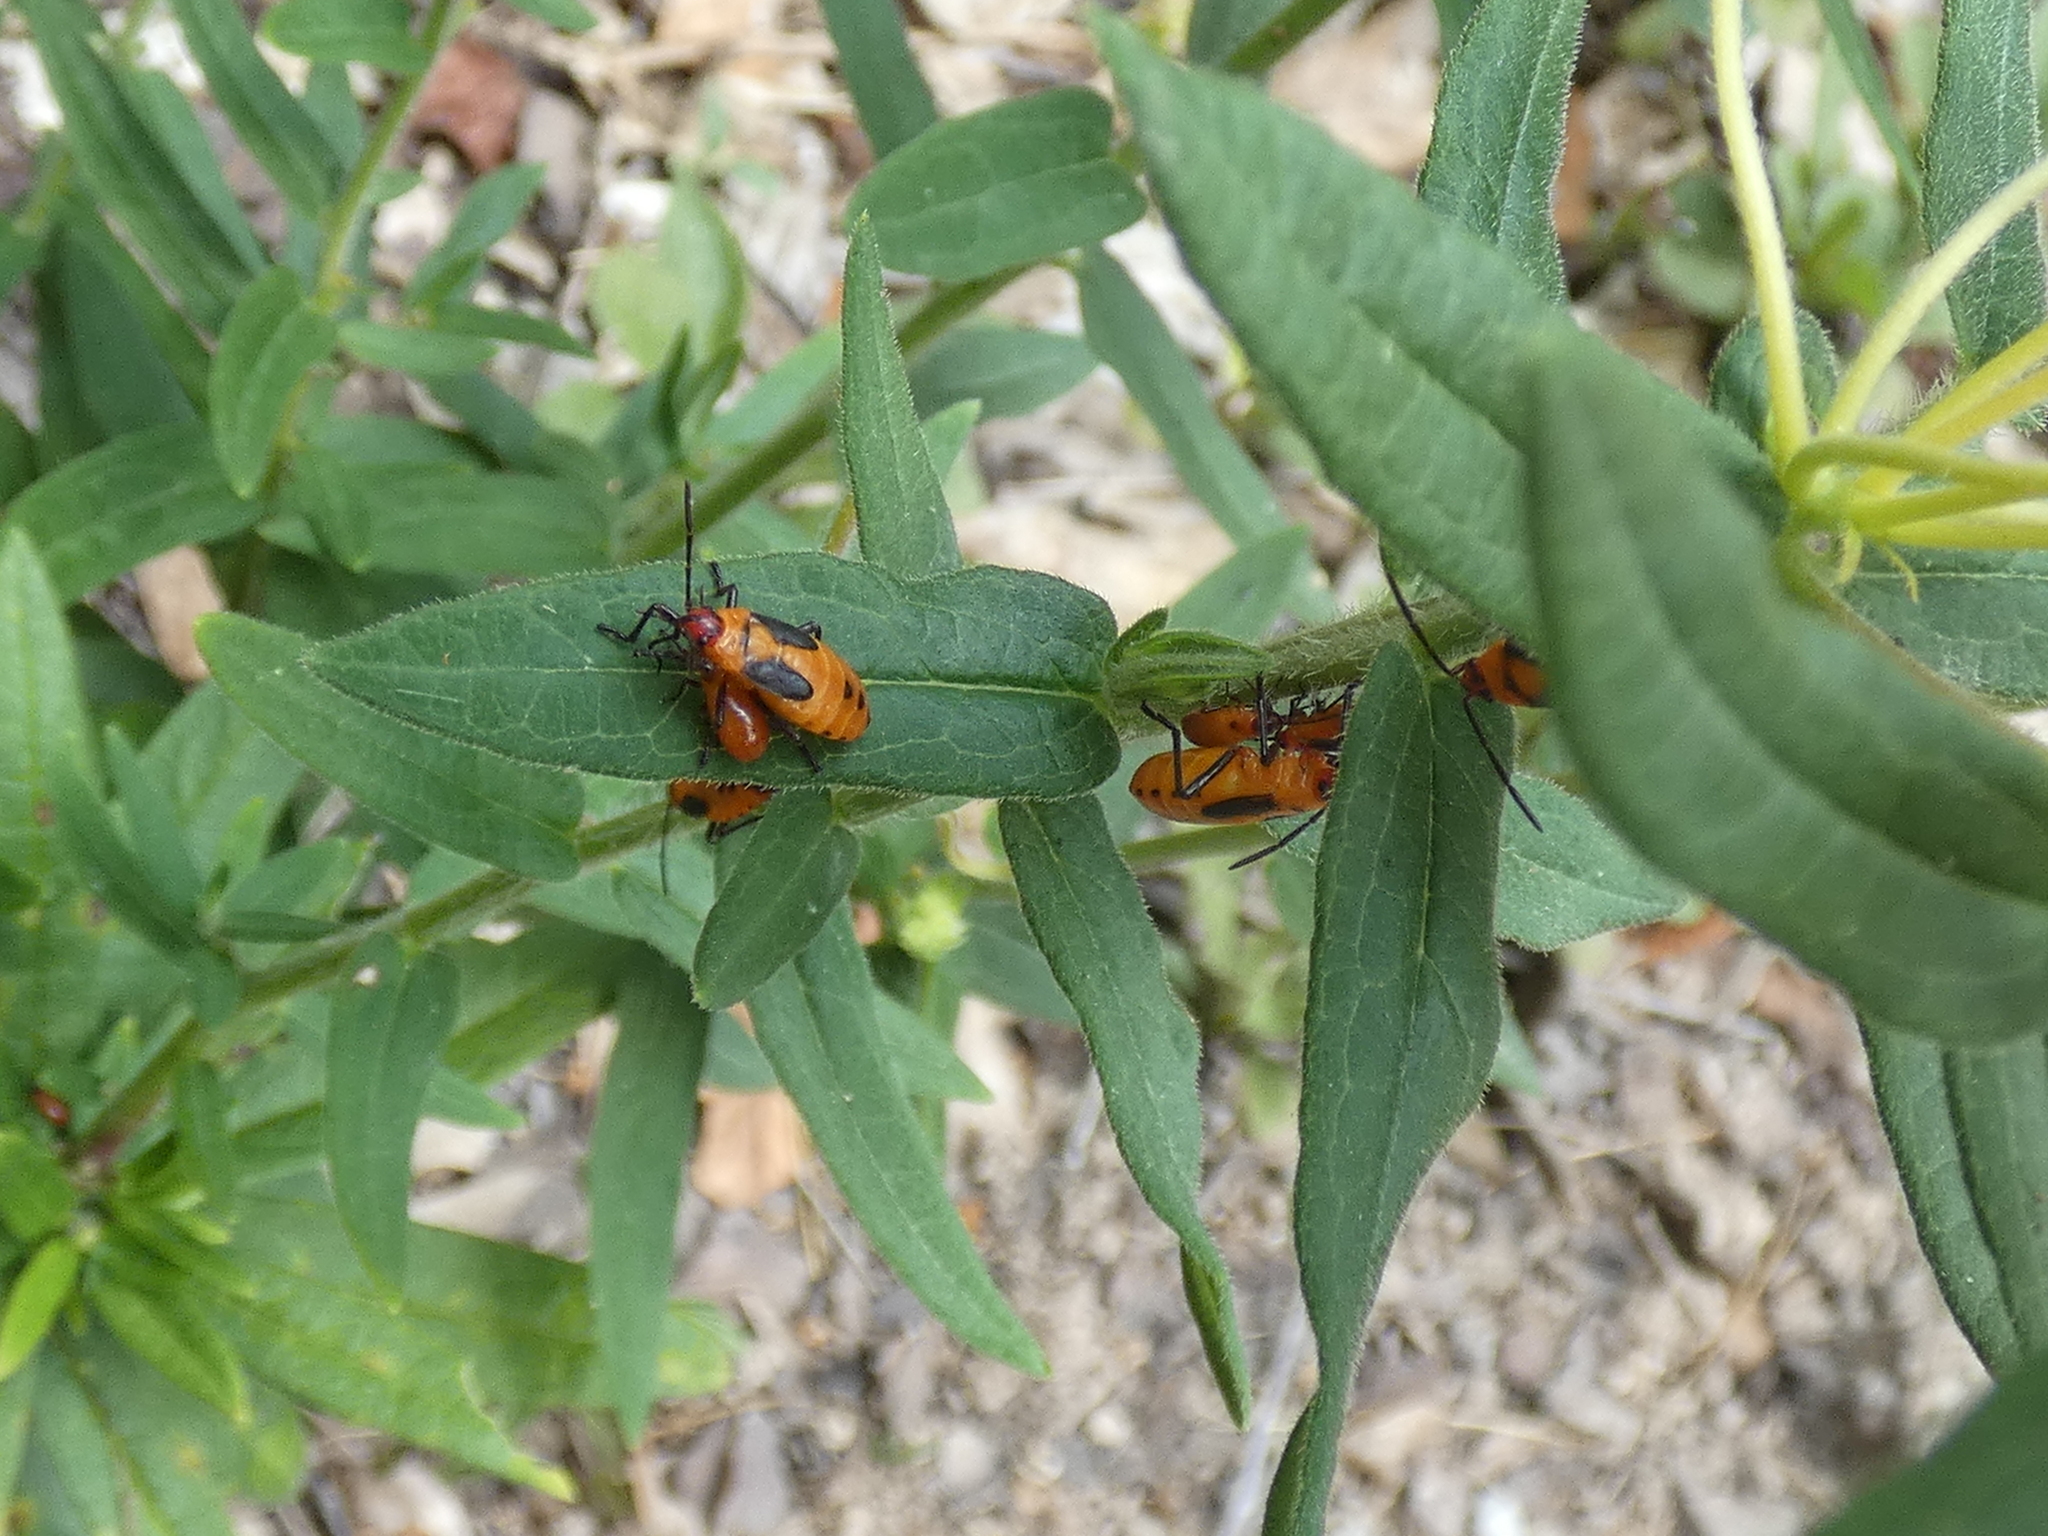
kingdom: Animalia
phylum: Arthropoda
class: Insecta
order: Hemiptera
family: Lygaeidae
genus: Oncopeltus
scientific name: Oncopeltus fasciatus
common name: Large milkweed bug
